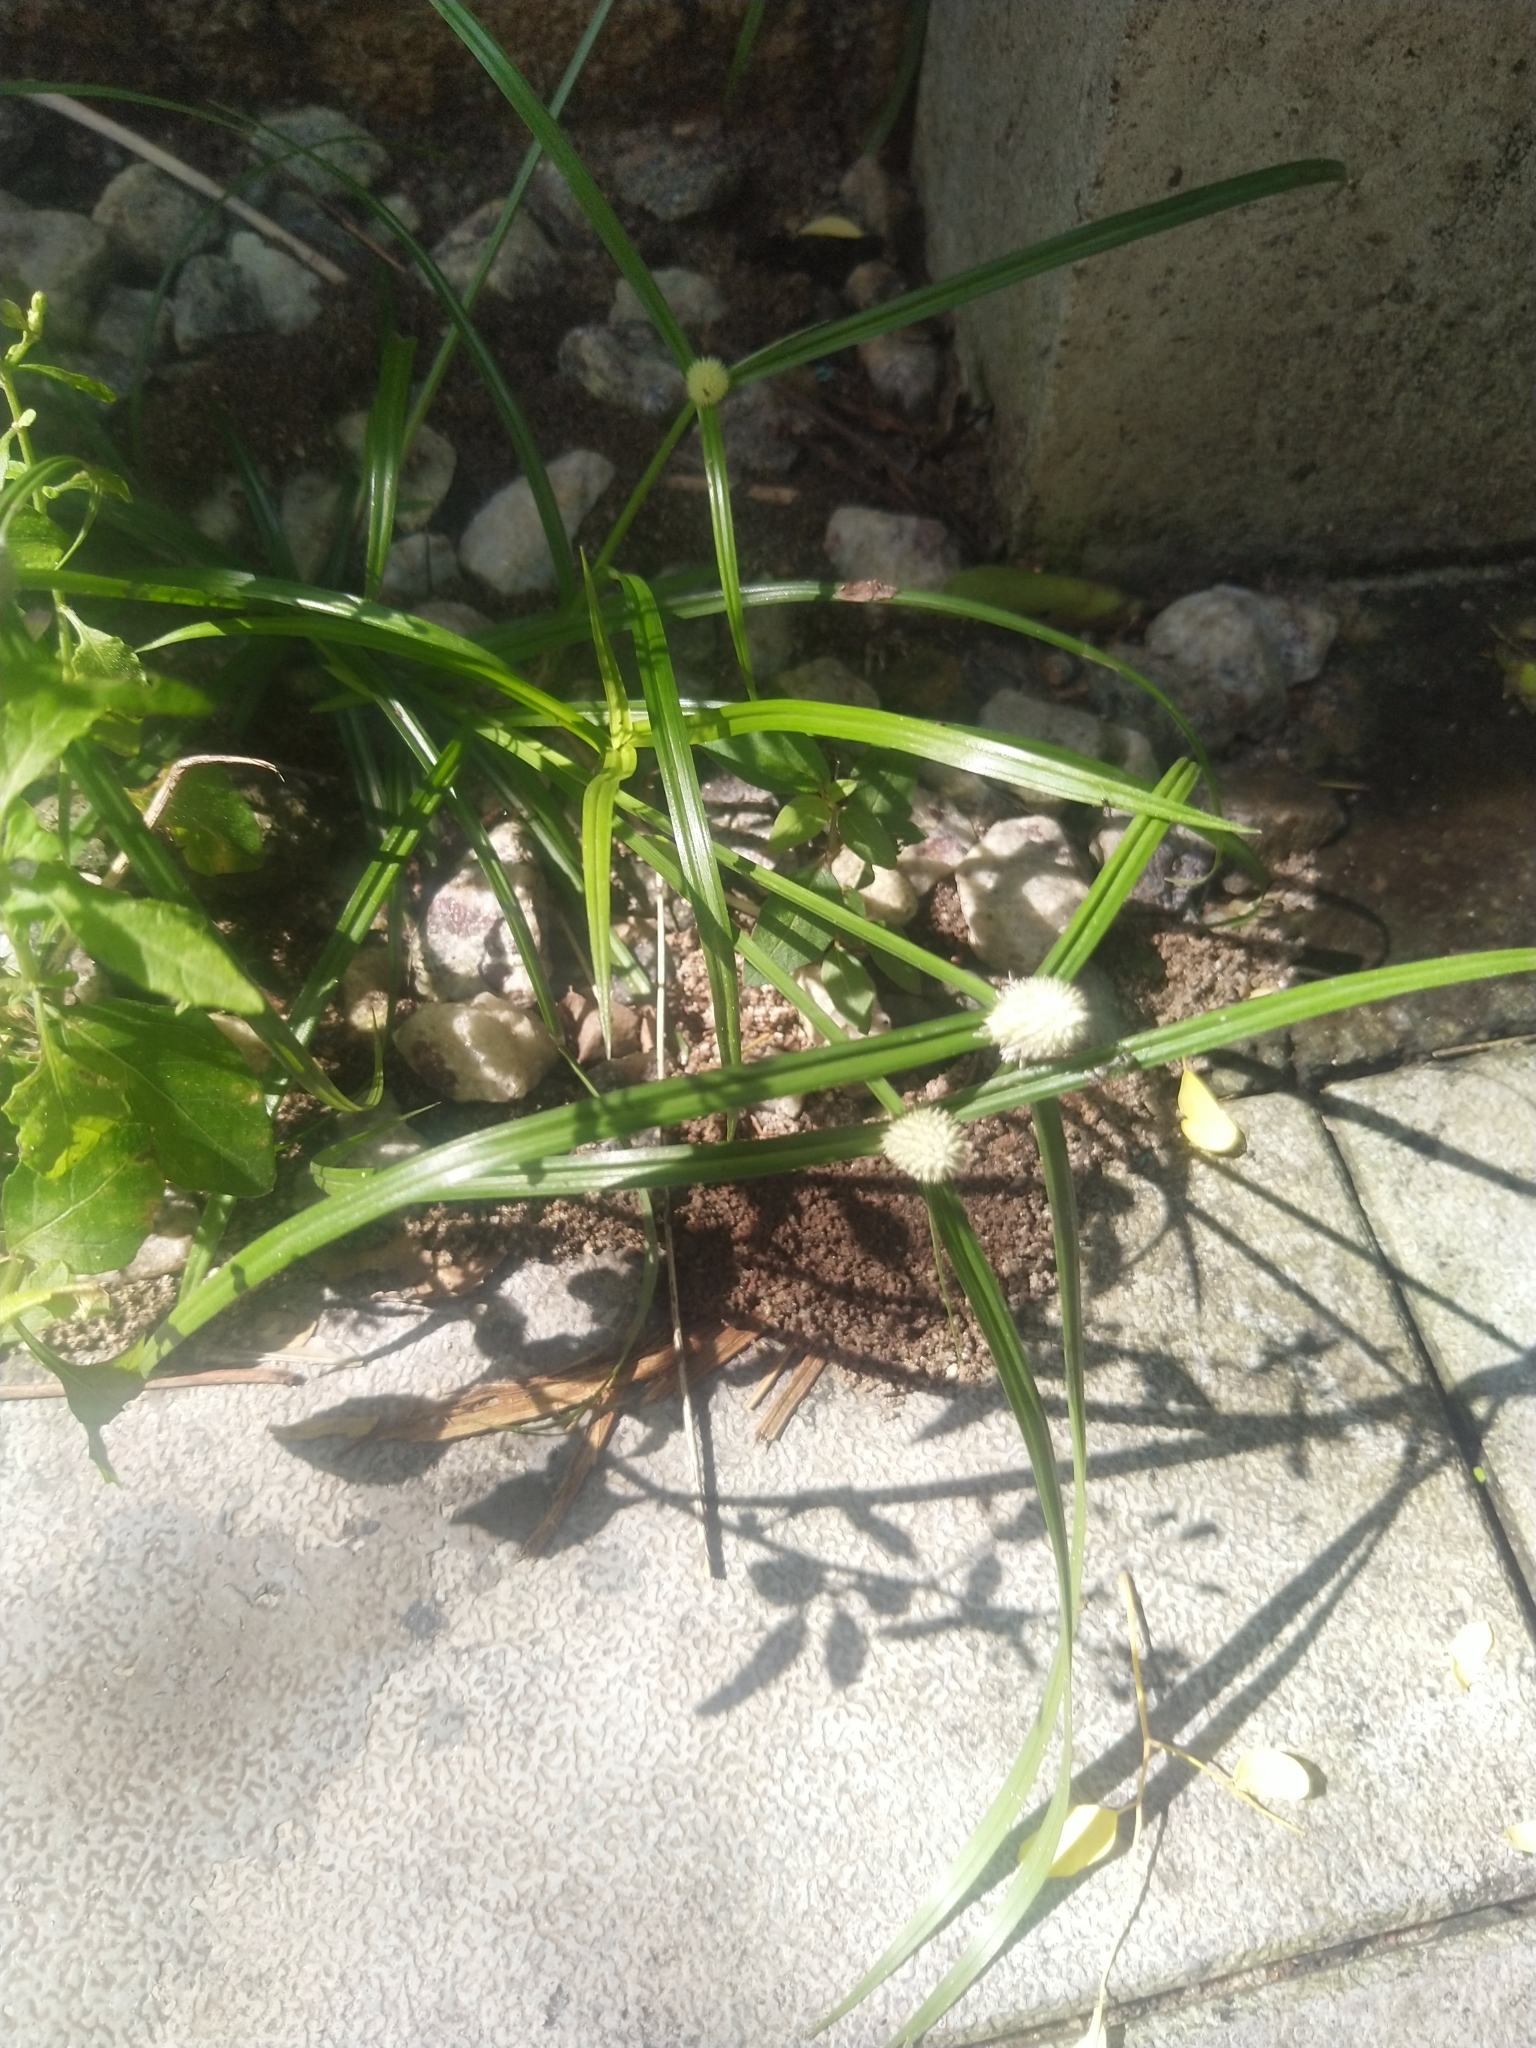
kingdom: Plantae
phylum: Tracheophyta
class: Liliopsida
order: Poales
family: Cyperaceae
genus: Cyperus
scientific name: Cyperus mindorensis
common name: Flatsedge
